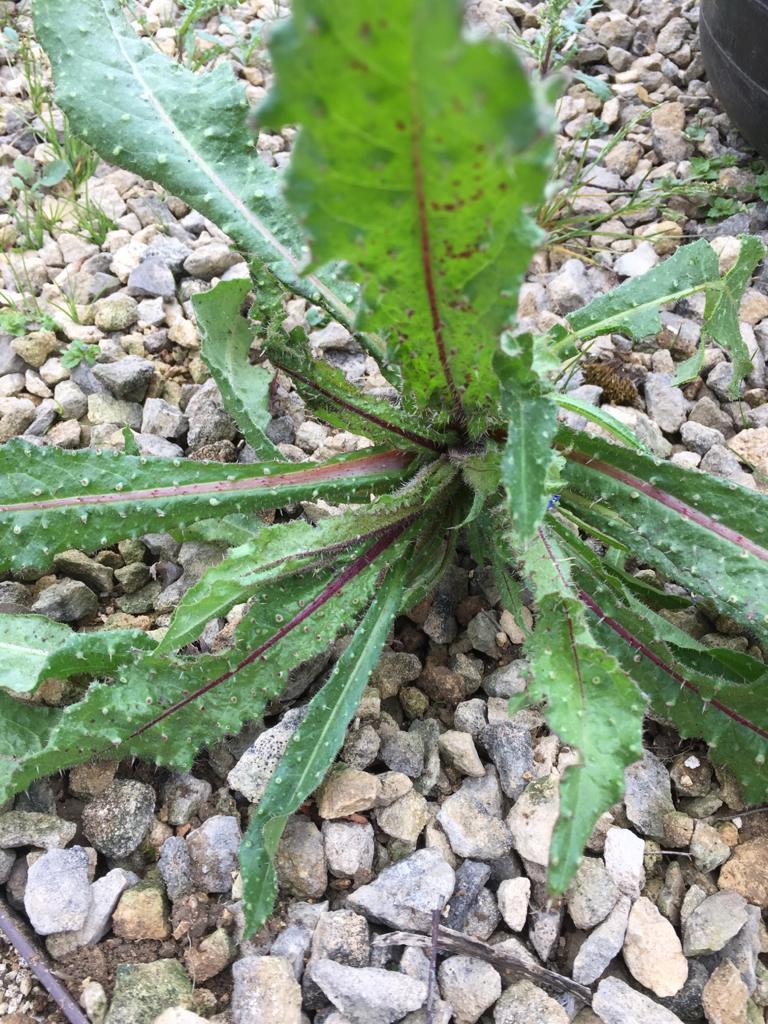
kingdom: Plantae
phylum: Tracheophyta
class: Magnoliopsida
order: Asterales
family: Asteraceae
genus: Helminthotheca
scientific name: Helminthotheca echioides
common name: Ox-tongue
